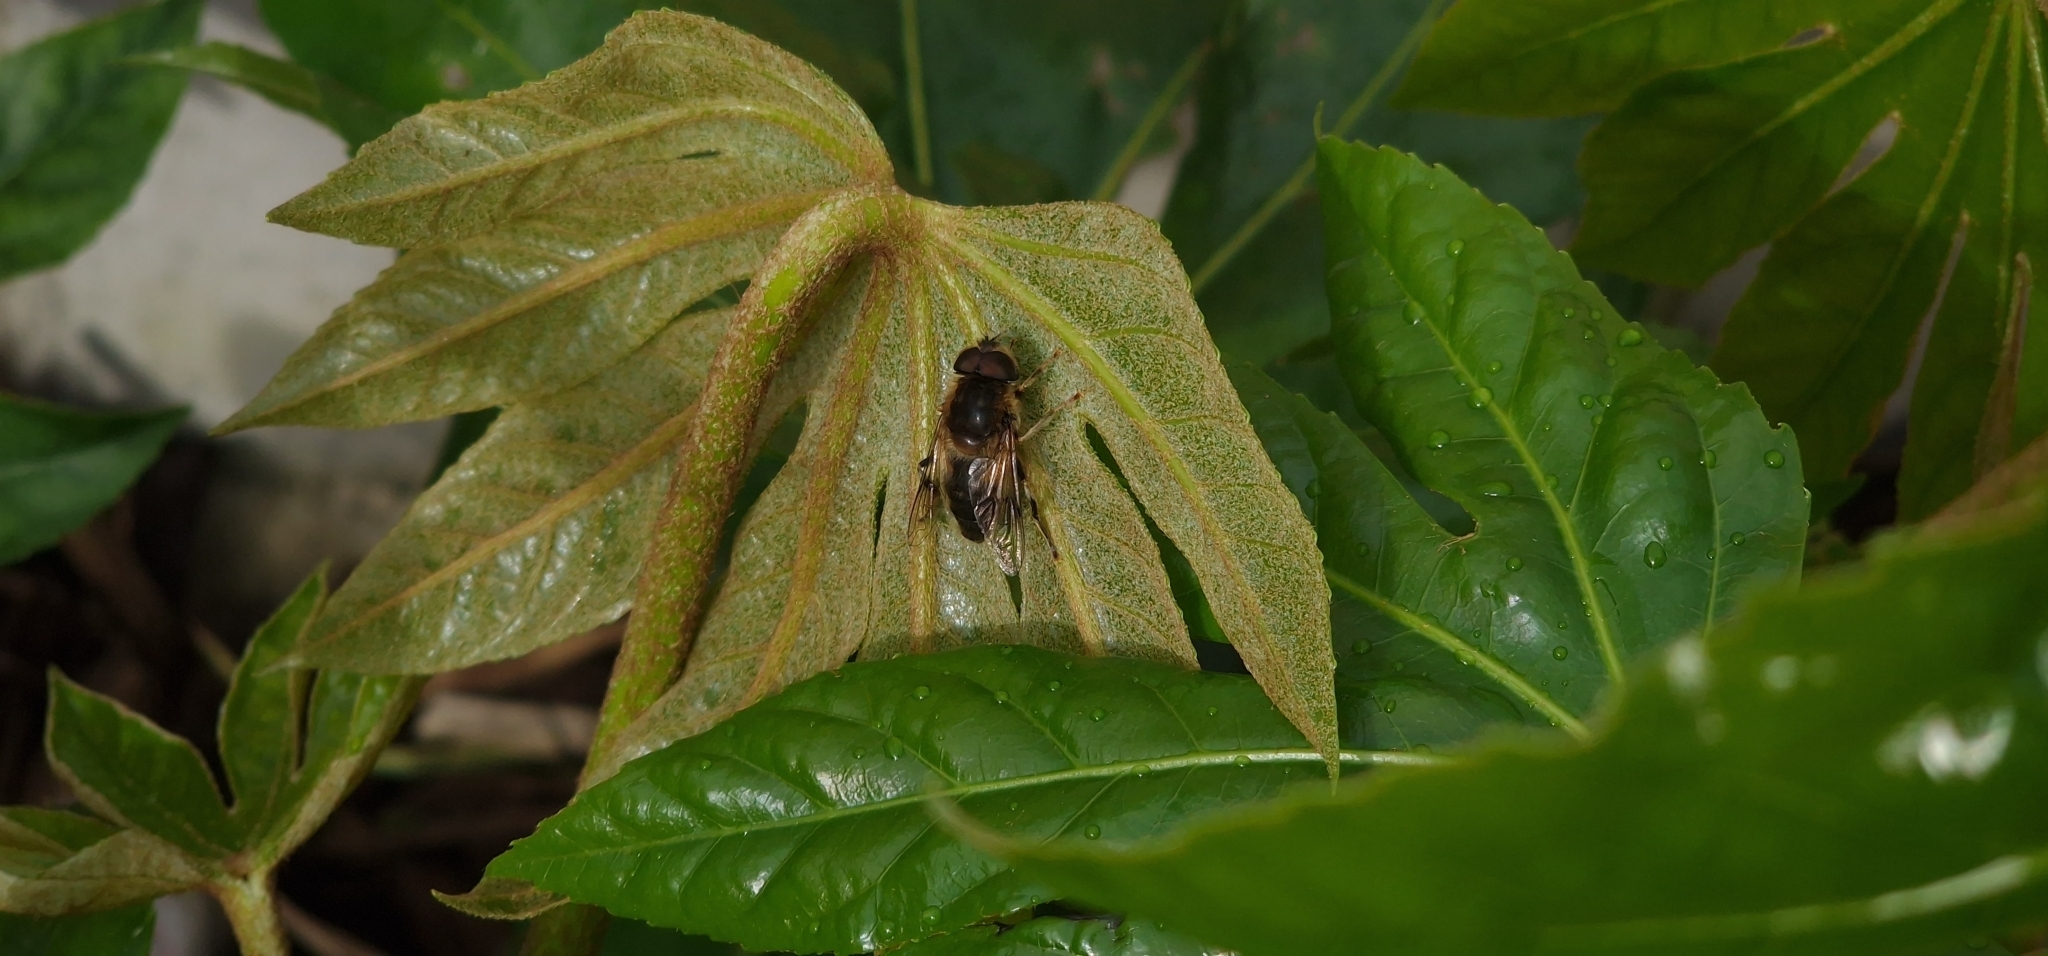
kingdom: Animalia
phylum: Arthropoda
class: Insecta
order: Diptera
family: Syrphidae
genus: Eristalis
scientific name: Eristalis pertinax
